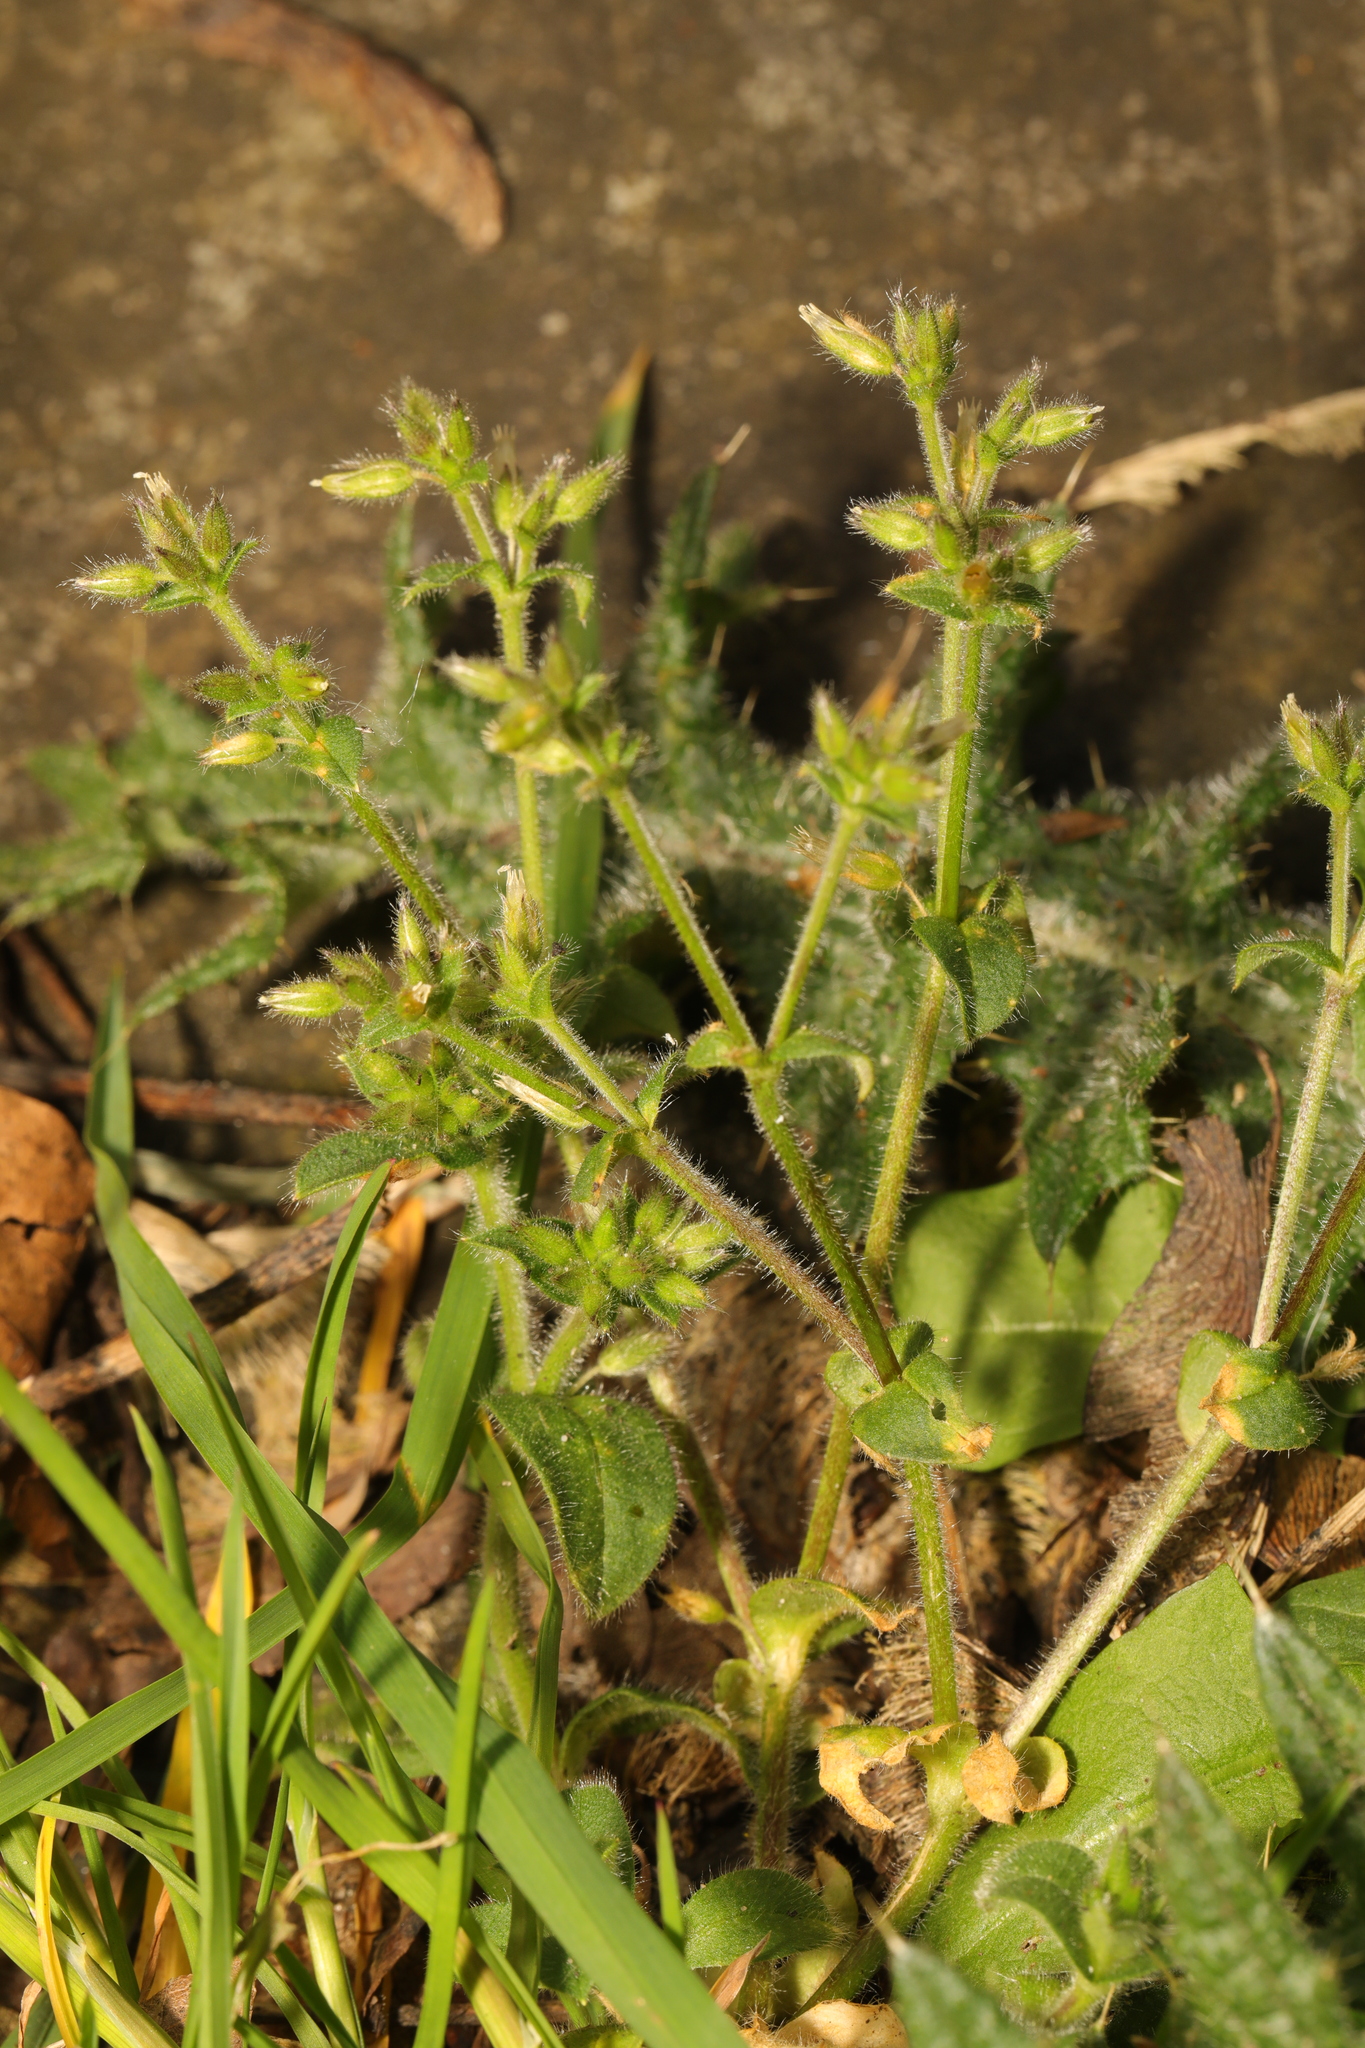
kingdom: Plantae
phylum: Tracheophyta
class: Magnoliopsida
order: Caryophyllales
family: Caryophyllaceae
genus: Cerastium
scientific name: Cerastium glomeratum
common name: Sticky chickweed
